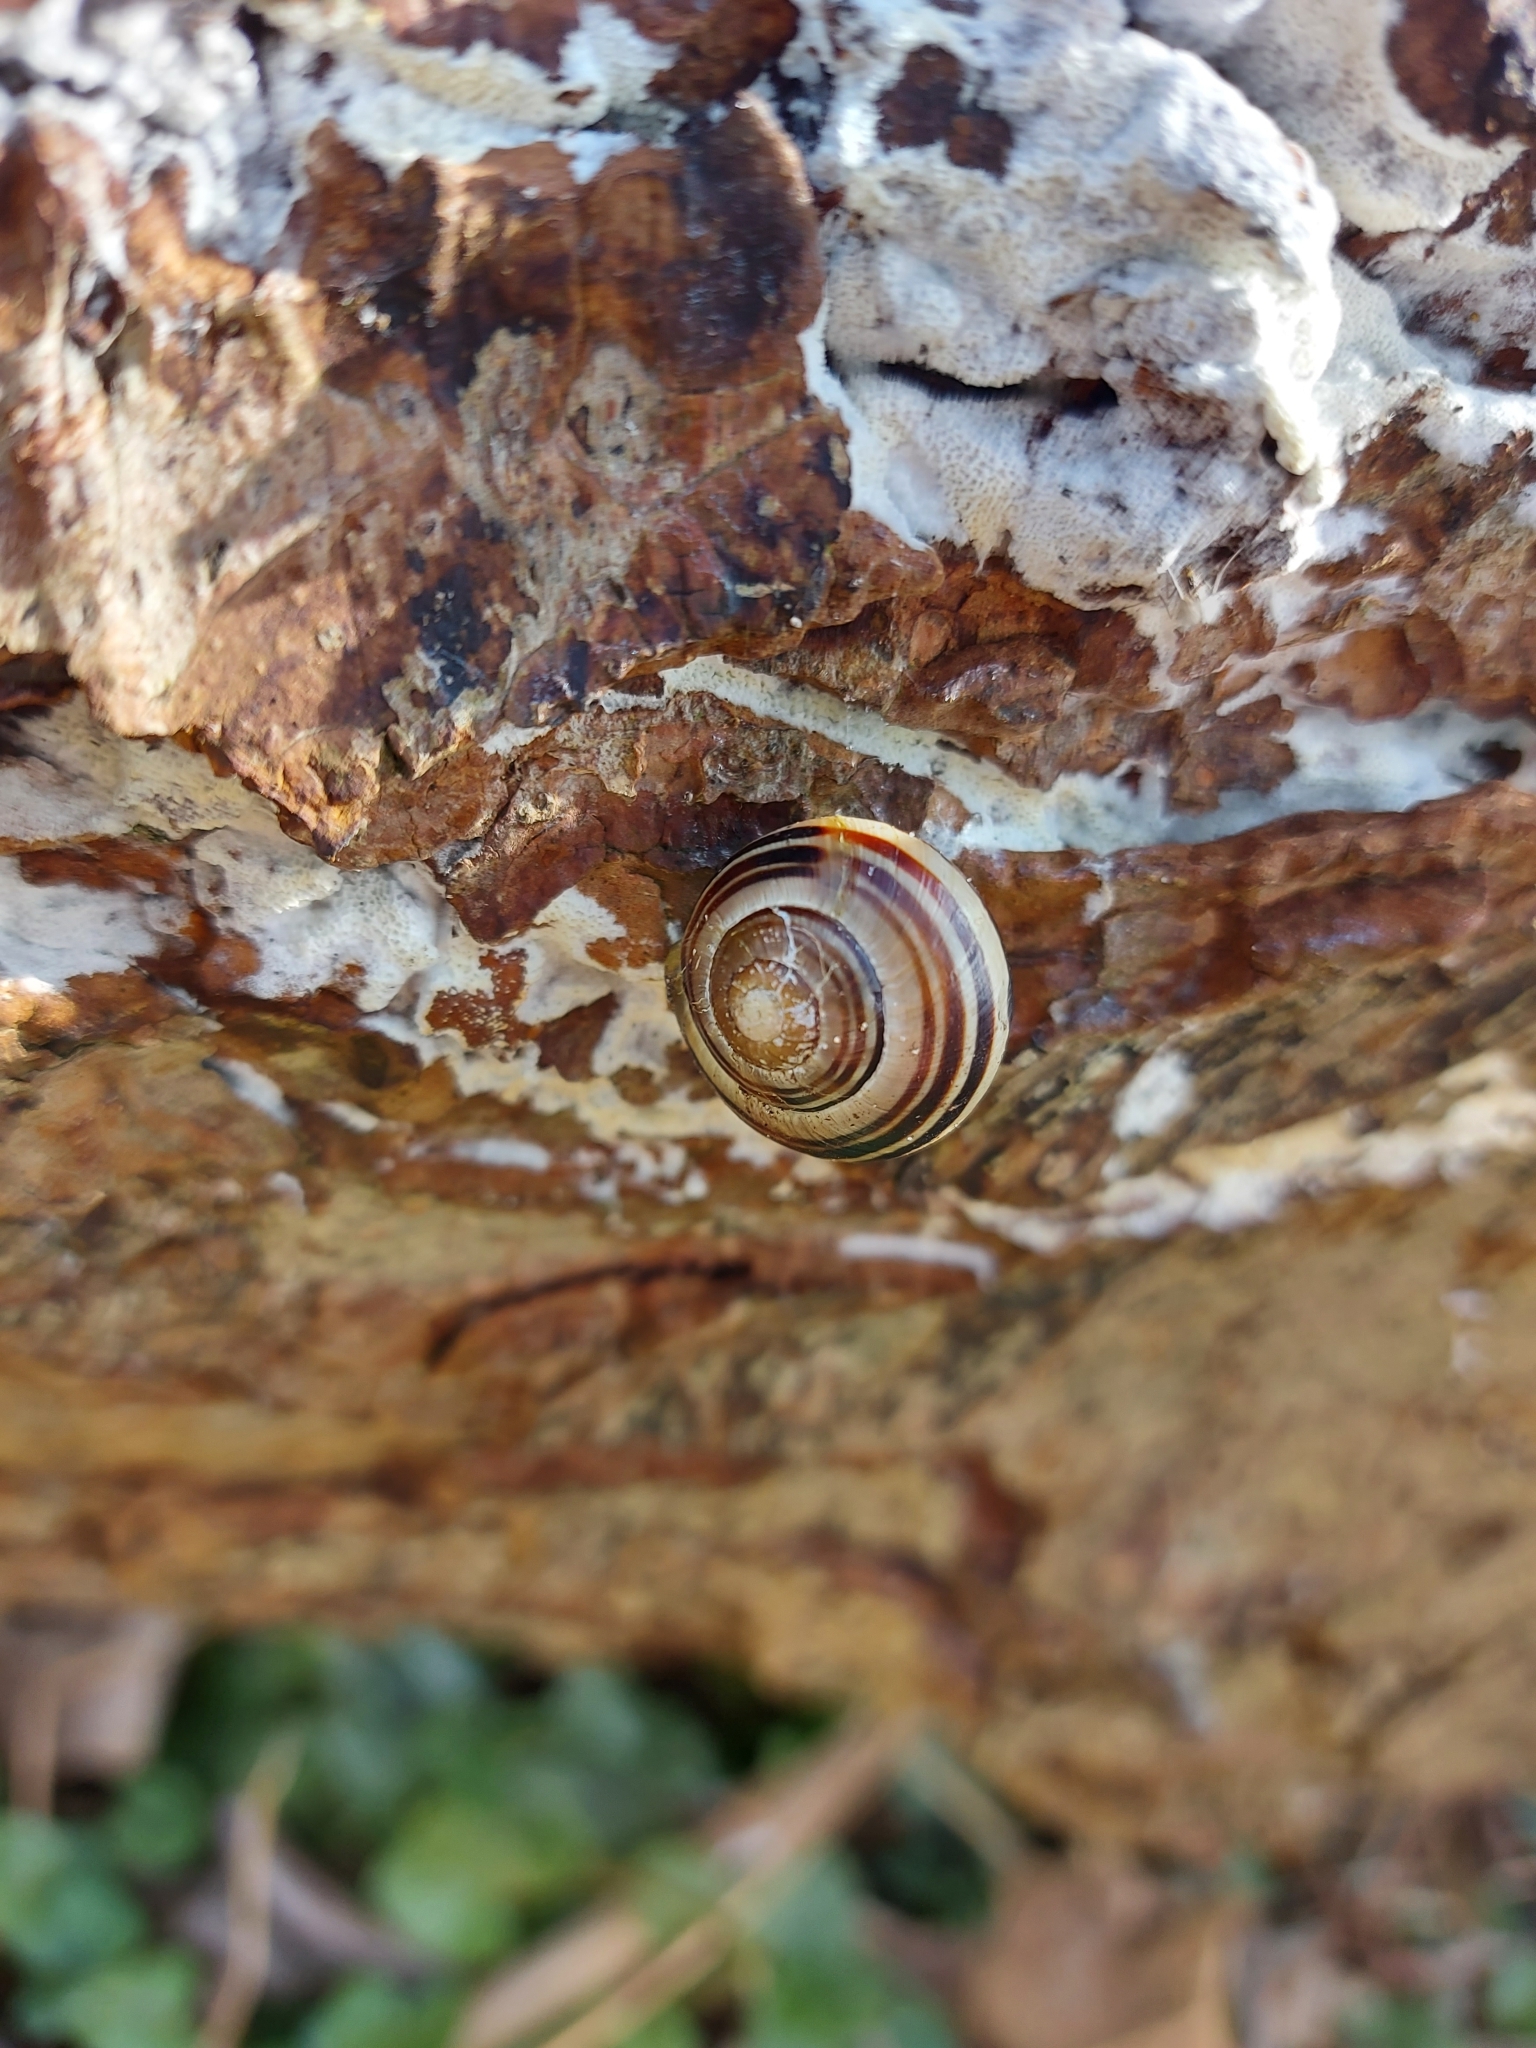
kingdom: Animalia
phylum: Mollusca
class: Gastropoda
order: Stylommatophora
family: Helicidae
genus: Cepaea
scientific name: Cepaea
